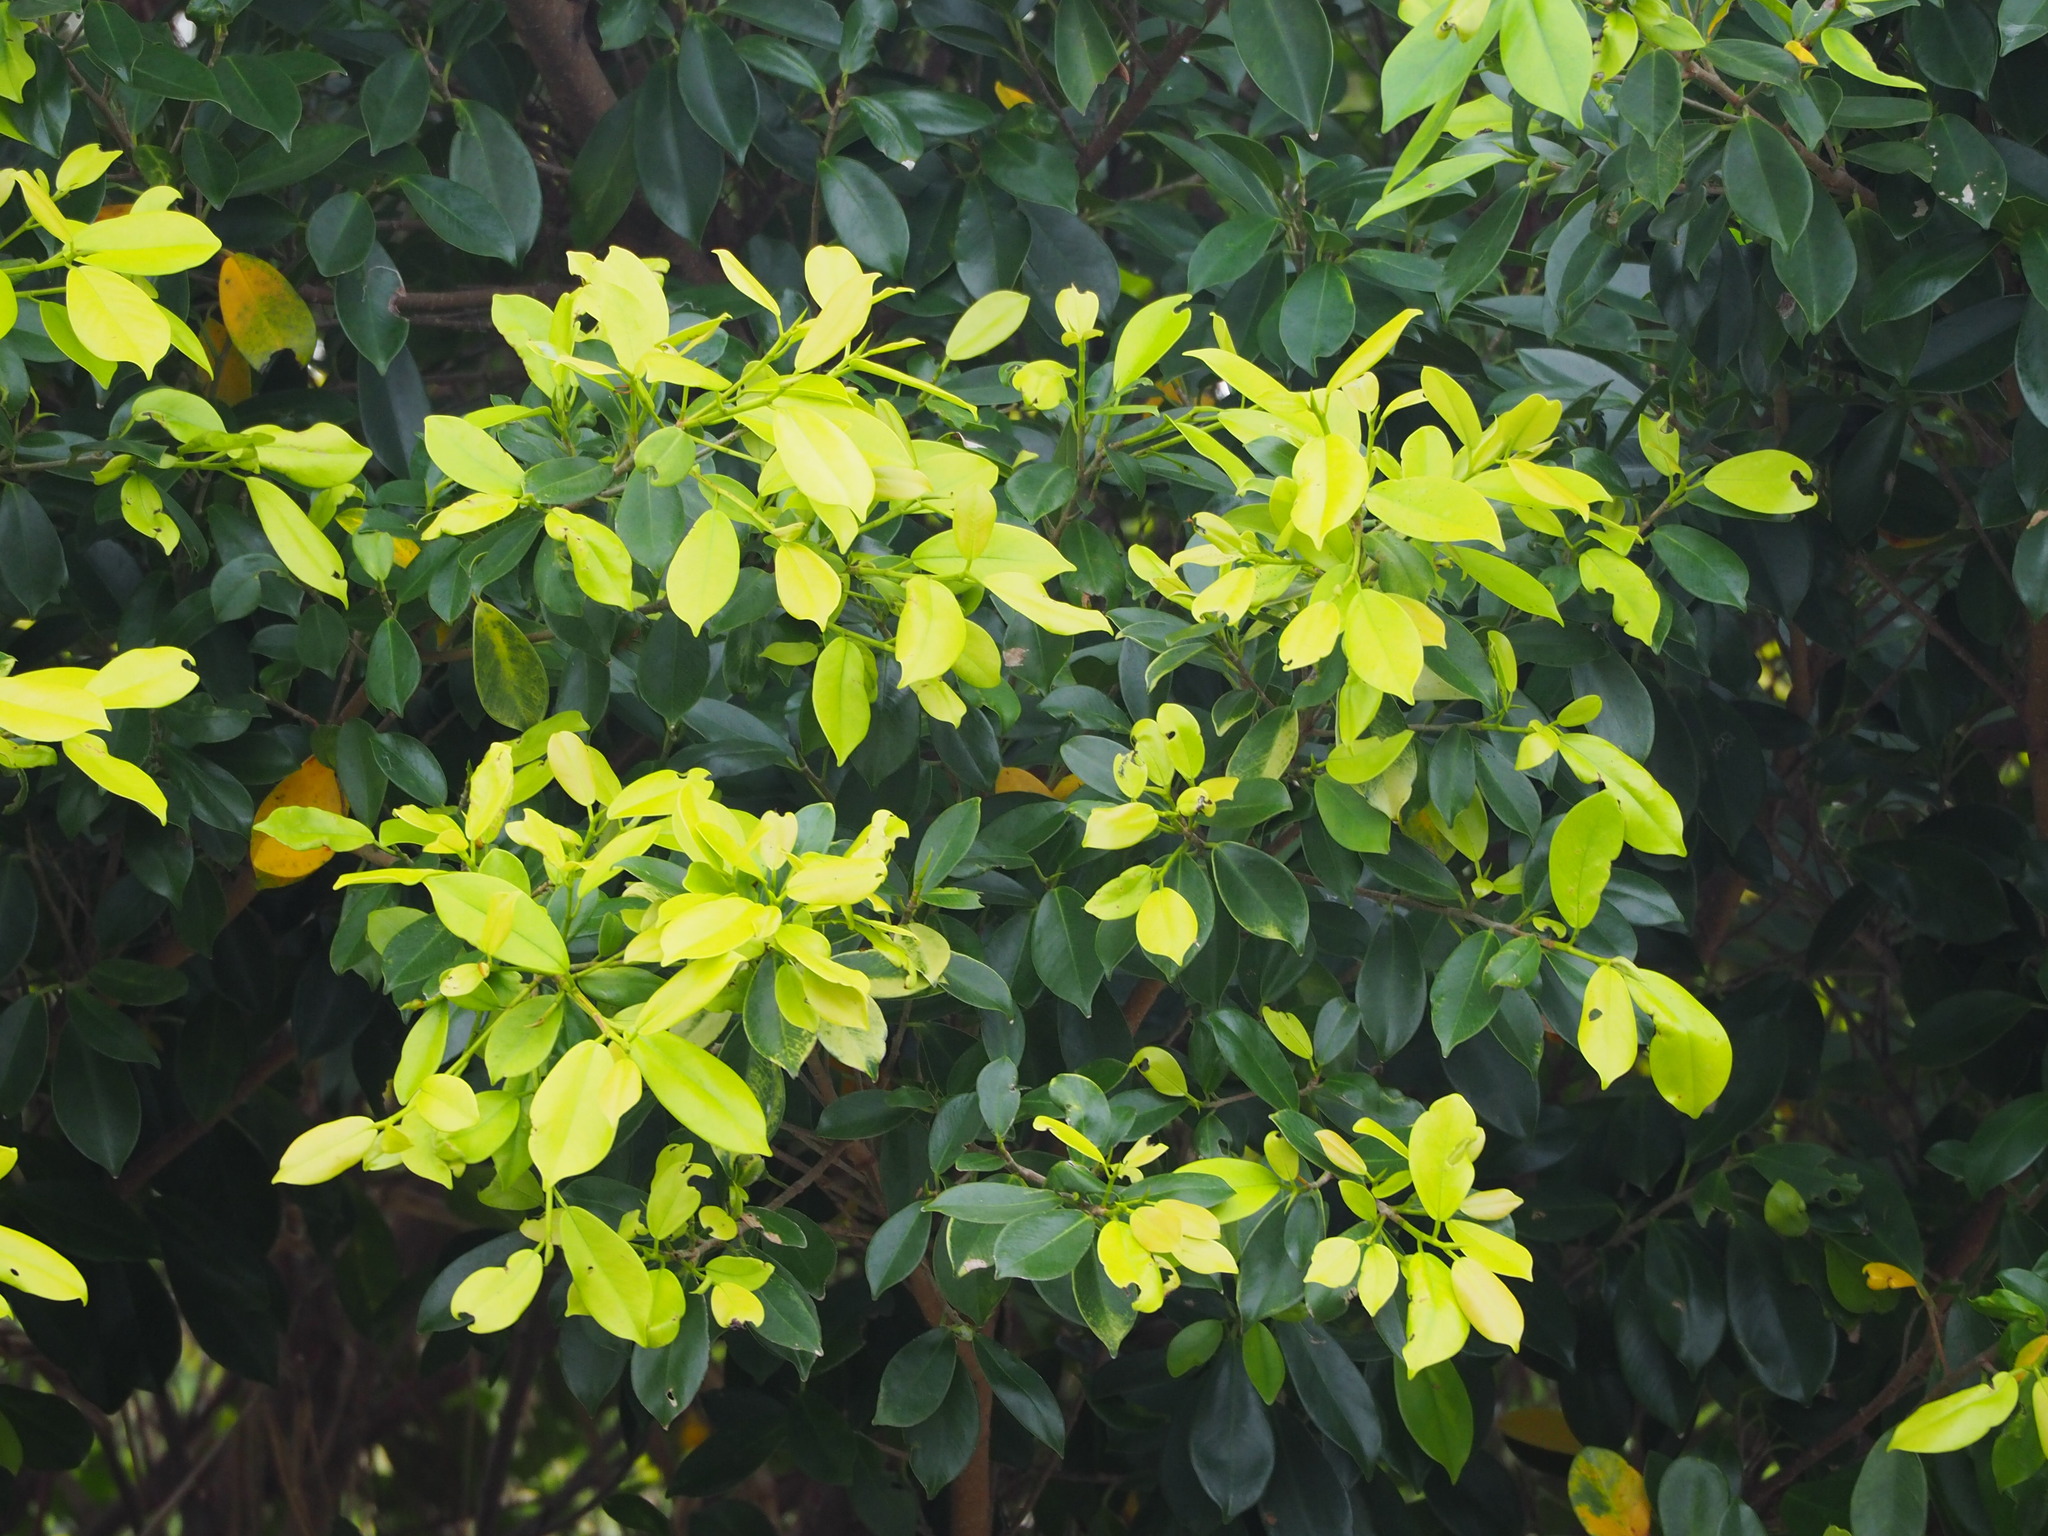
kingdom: Plantae
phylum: Tracheophyta
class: Magnoliopsida
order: Rosales
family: Moraceae
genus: Ficus
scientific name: Ficus microcarpa
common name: Chinese banyan
